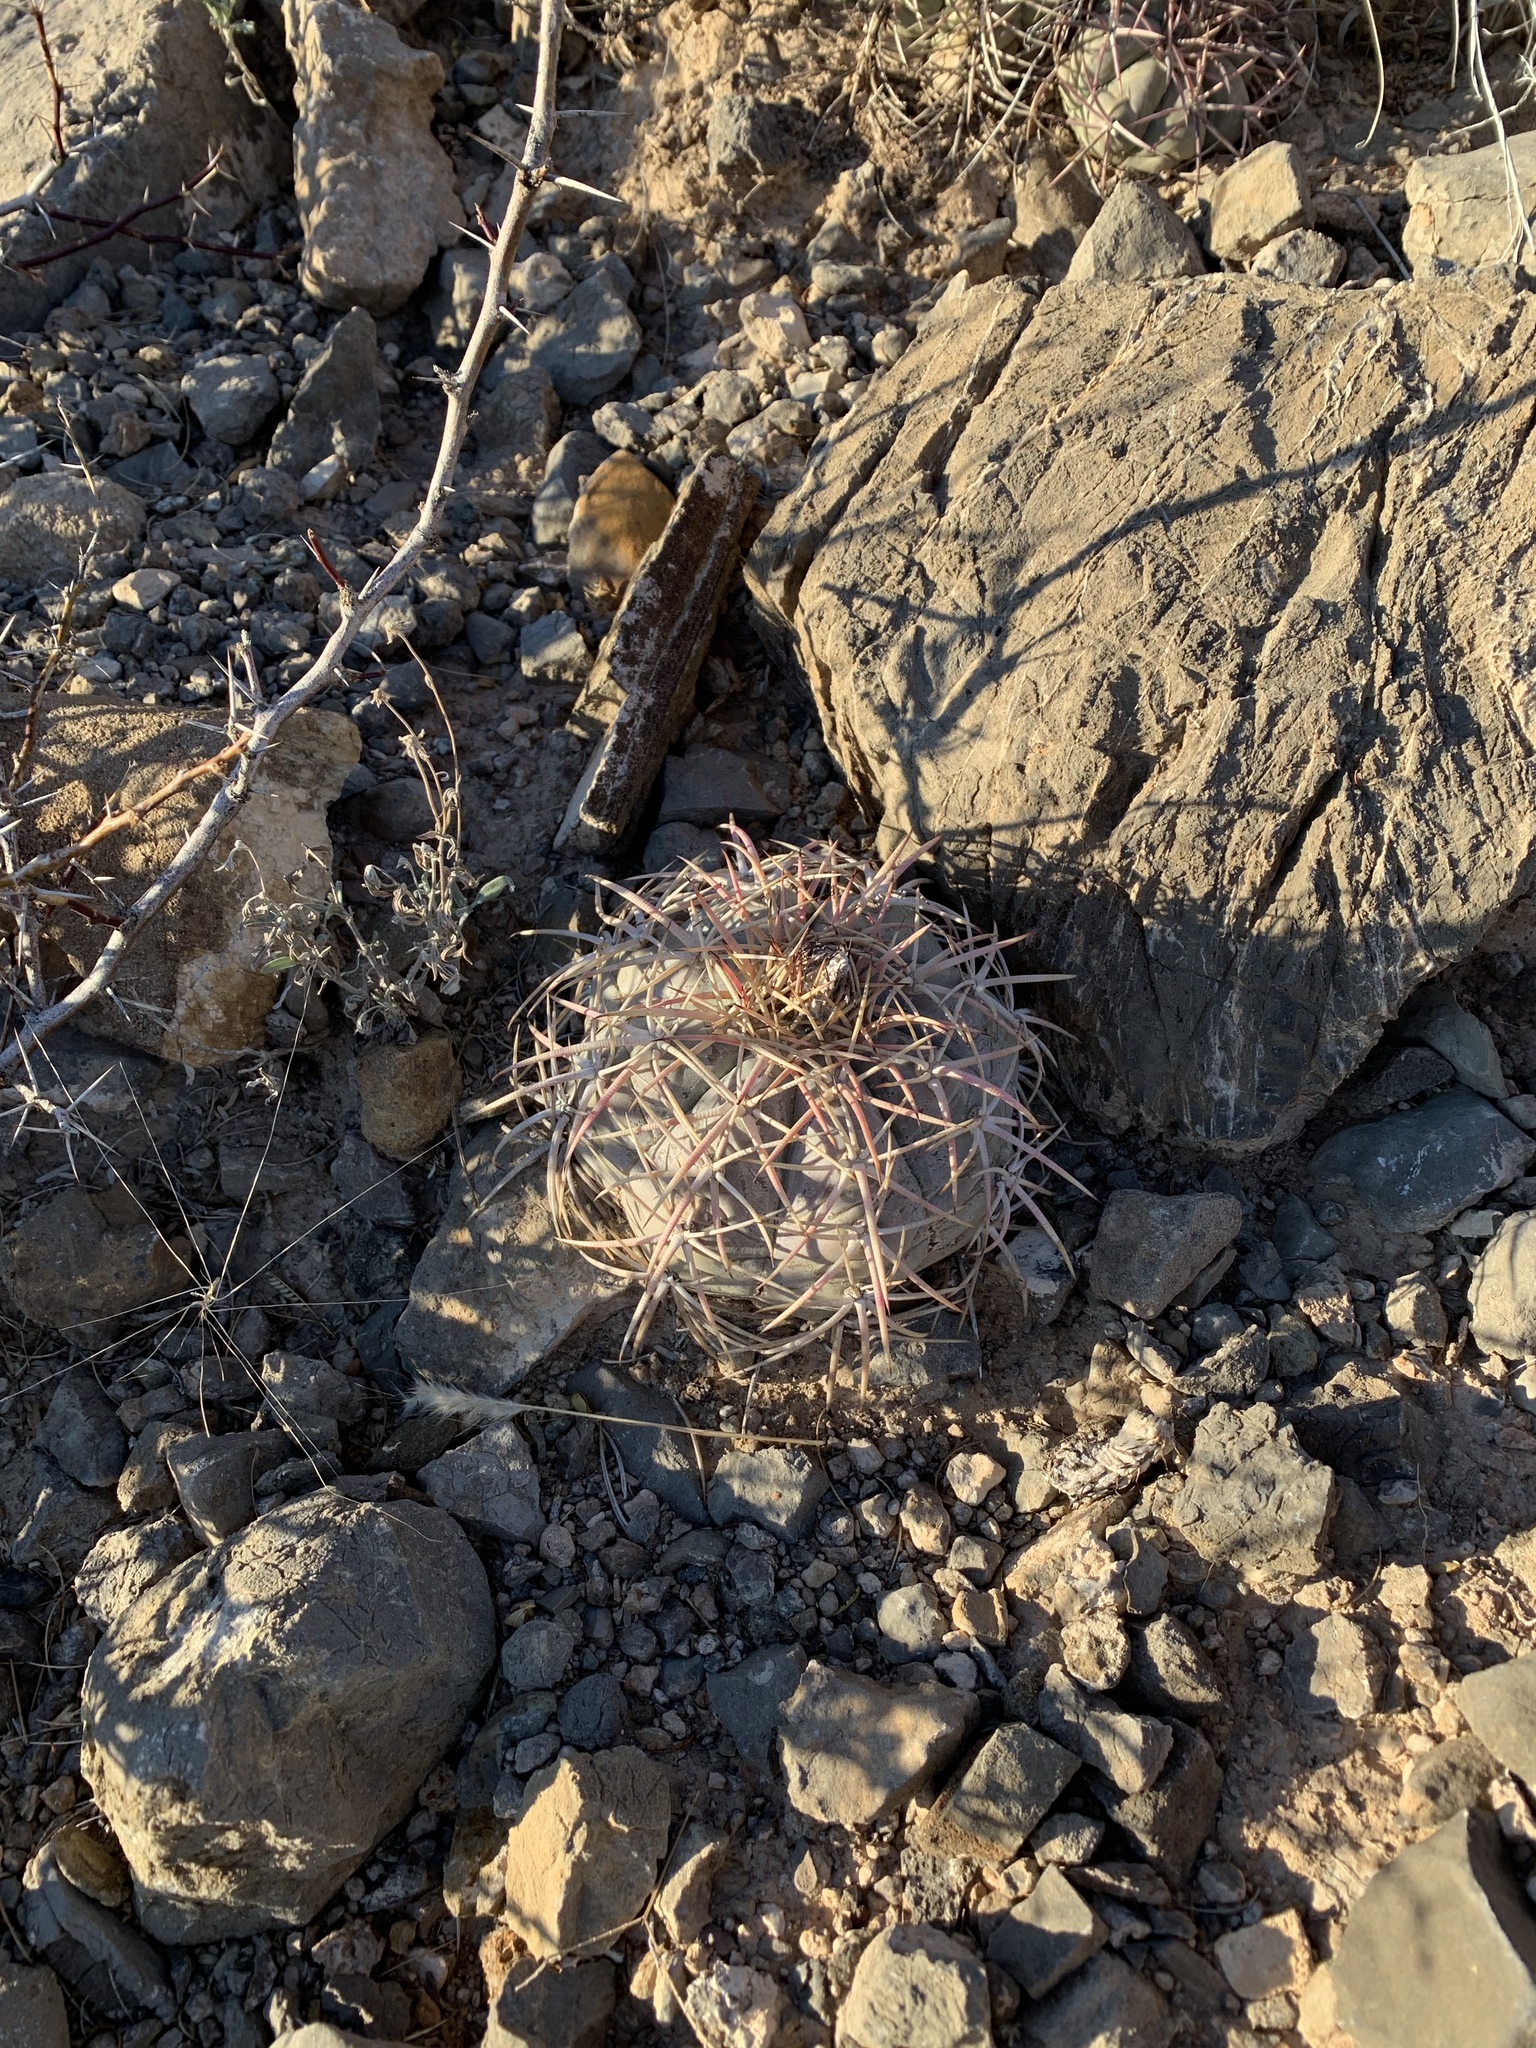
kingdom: Plantae
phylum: Tracheophyta
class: Magnoliopsida
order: Caryophyllales
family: Cactaceae
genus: Echinocactus
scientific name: Echinocactus horizonthalonius
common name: Devilshead
